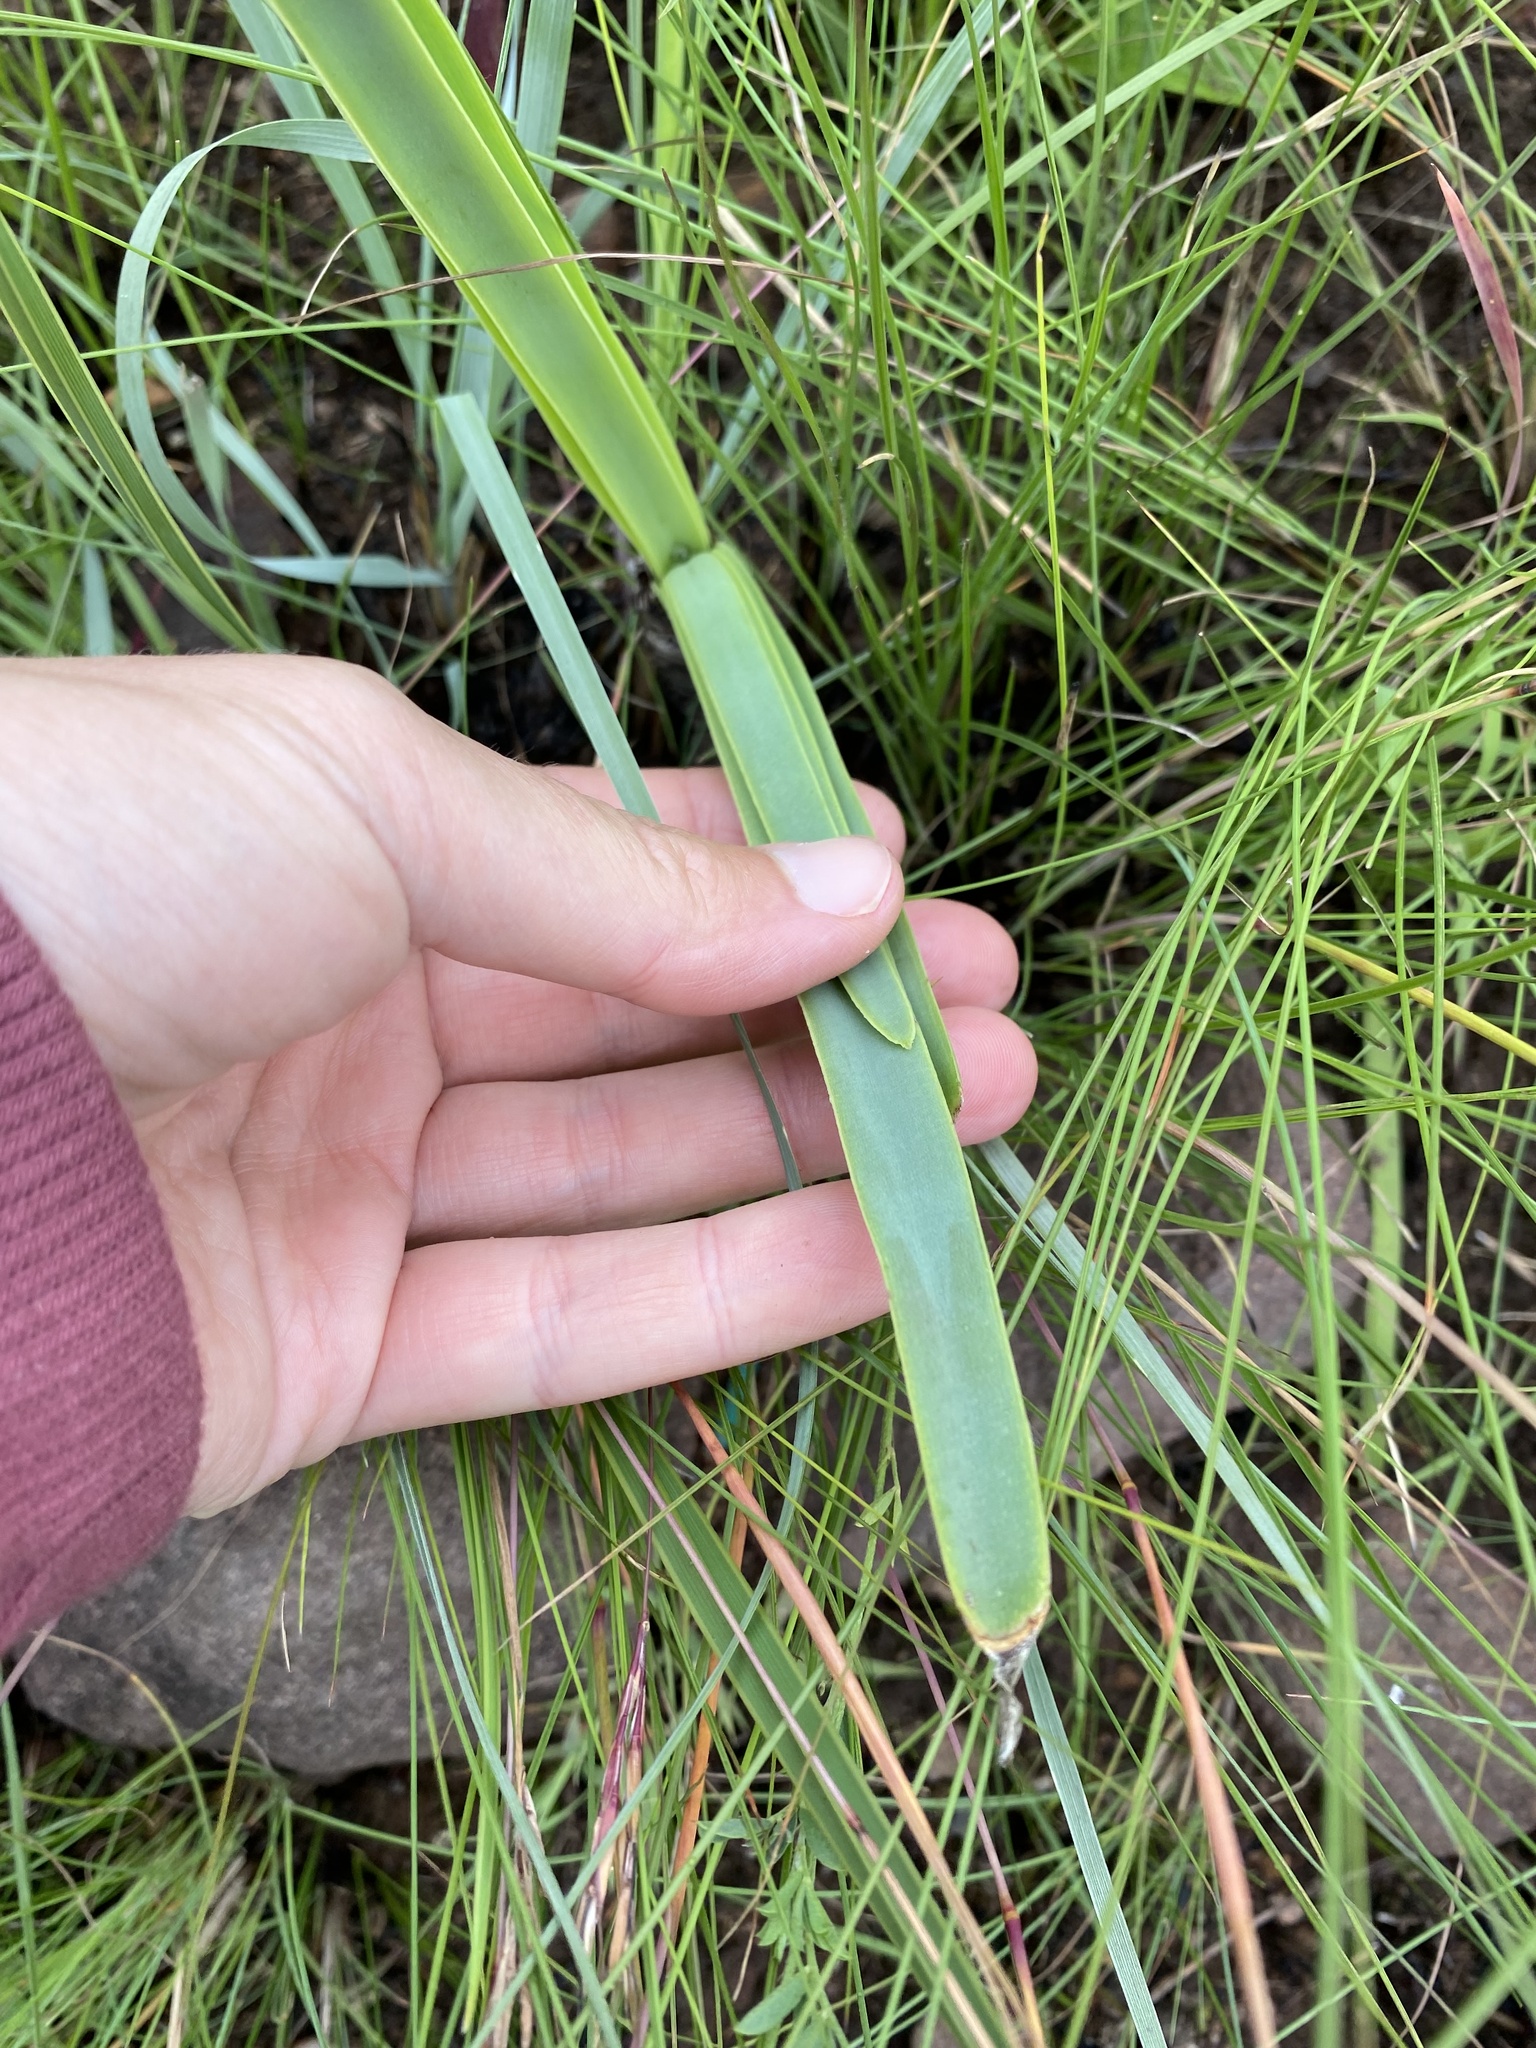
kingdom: Plantae
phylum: Tracheophyta
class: Liliopsida
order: Asparagales
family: Asphodelaceae
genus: Aloe
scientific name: Aloe cooperi
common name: Cooper's aloe
